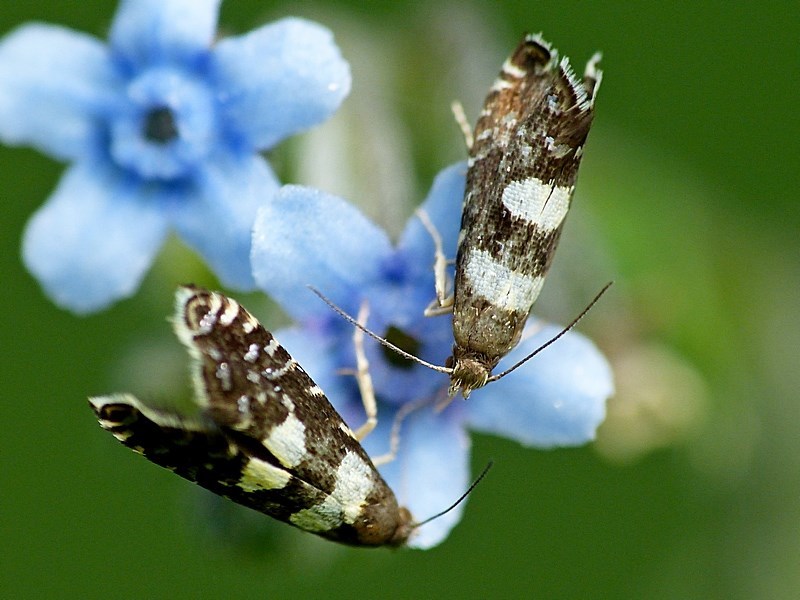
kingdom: Animalia
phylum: Arthropoda
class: Insecta
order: Lepidoptera
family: Glyphipterigidae
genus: Glyphipterix
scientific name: Glyphipterix chrysoplanetis
